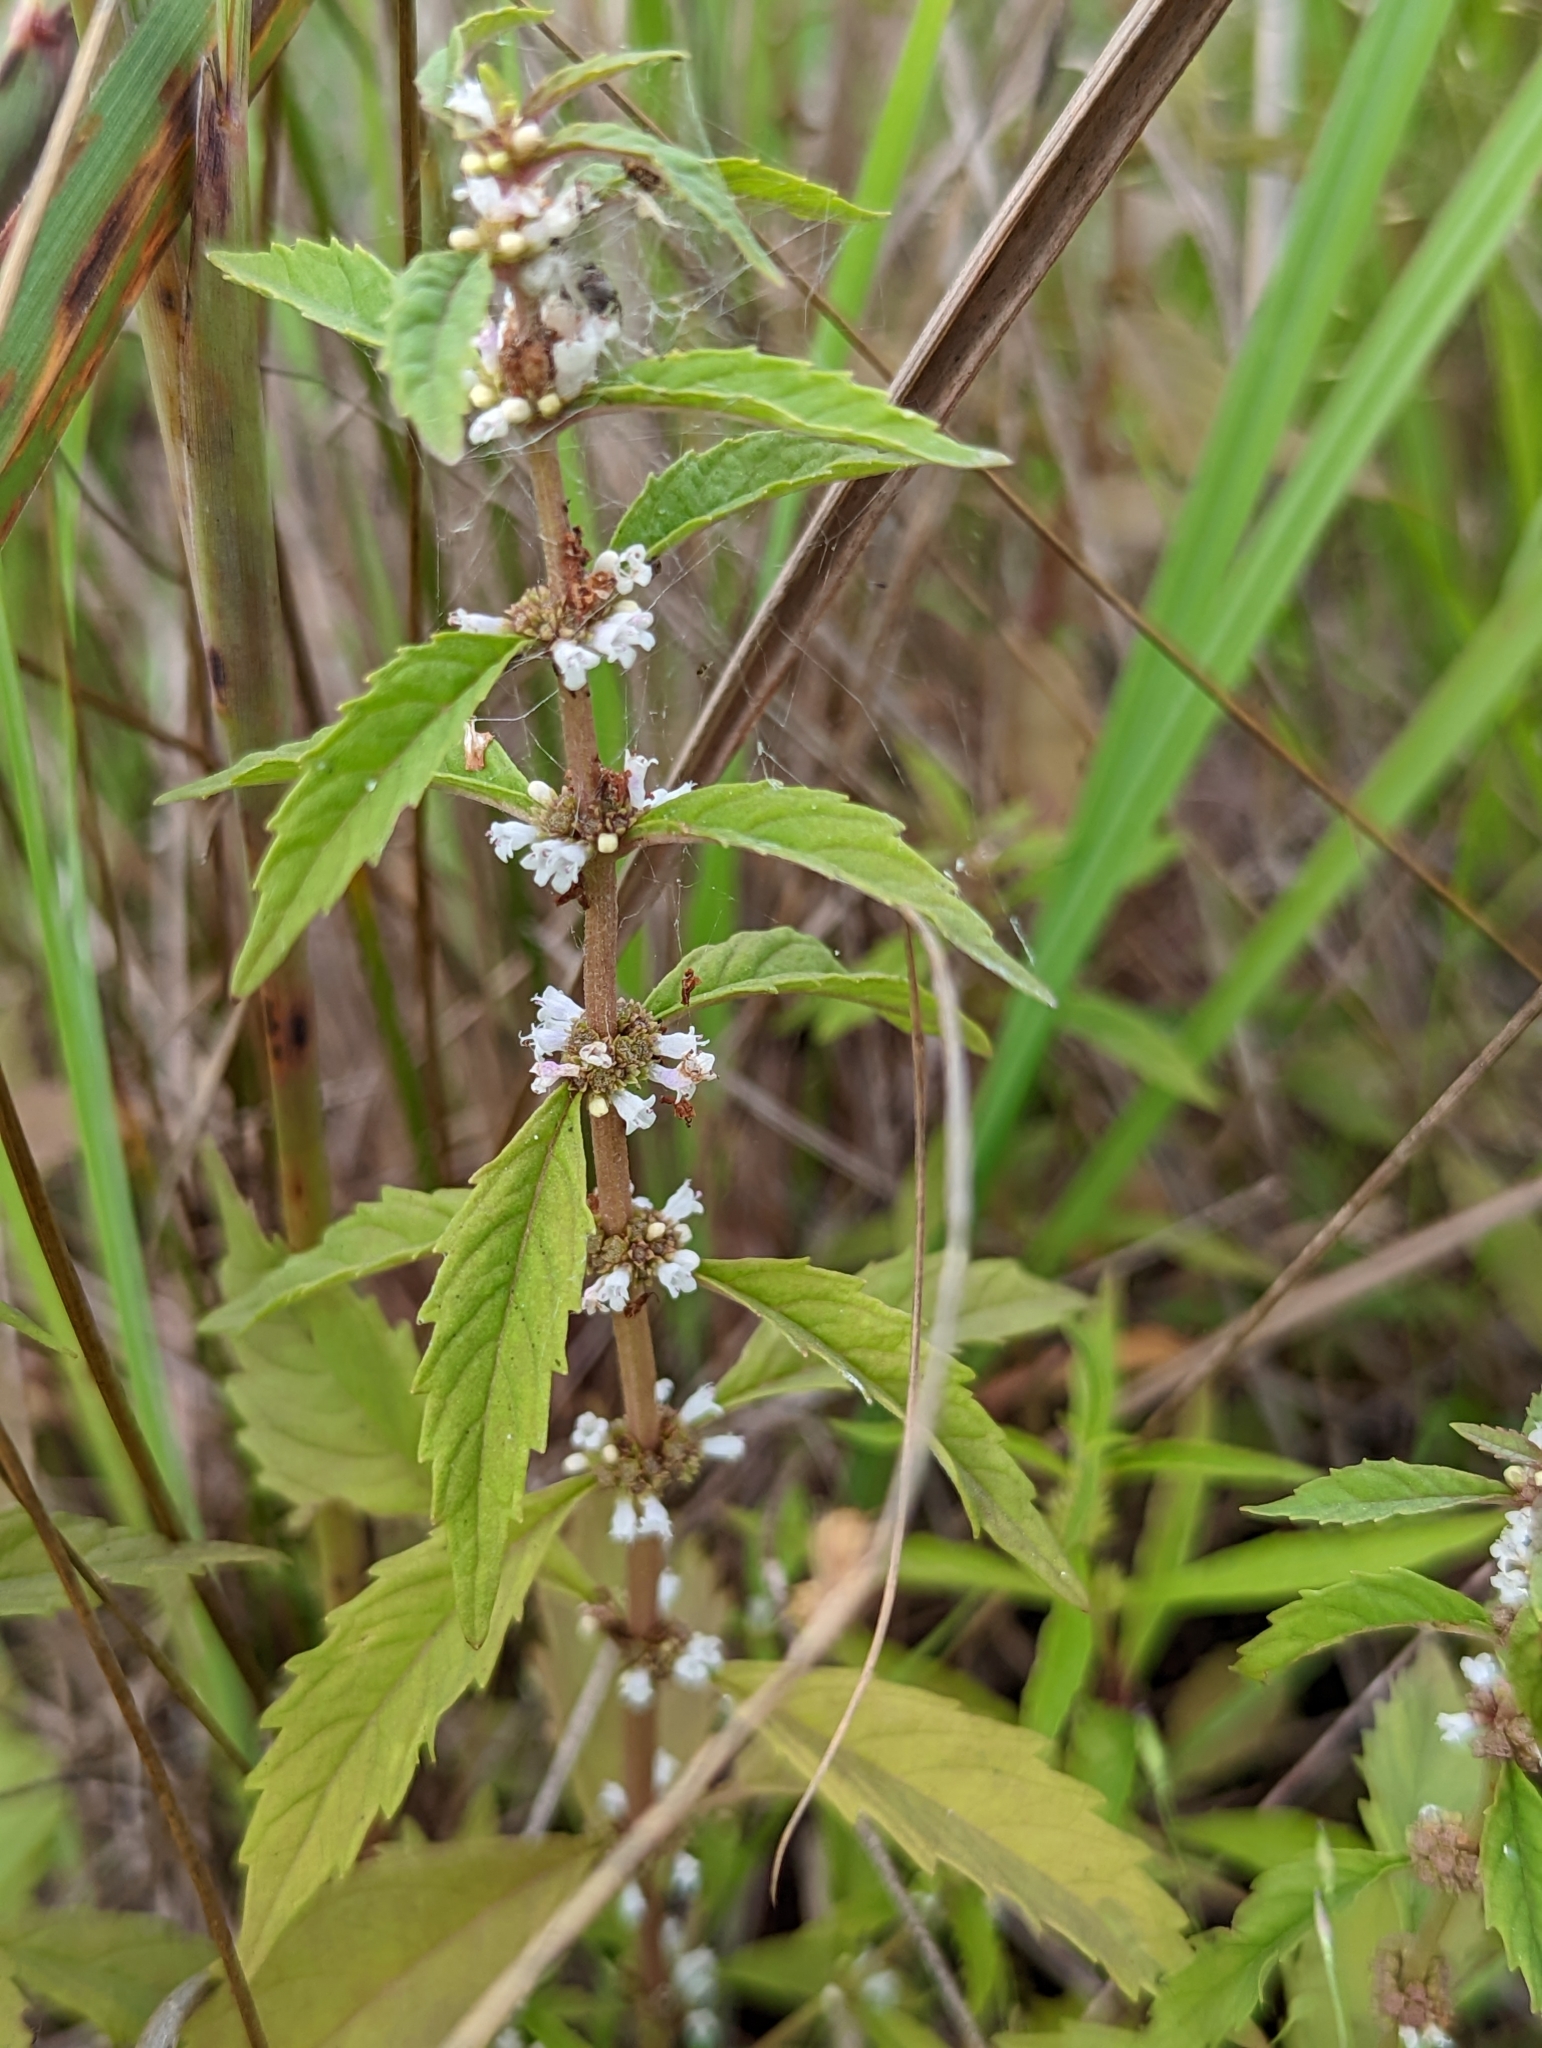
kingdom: Plantae
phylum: Tracheophyta
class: Magnoliopsida
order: Lamiales
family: Lamiaceae
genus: Lycopus
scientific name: Lycopus uniflorus
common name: Northern bugleweed
